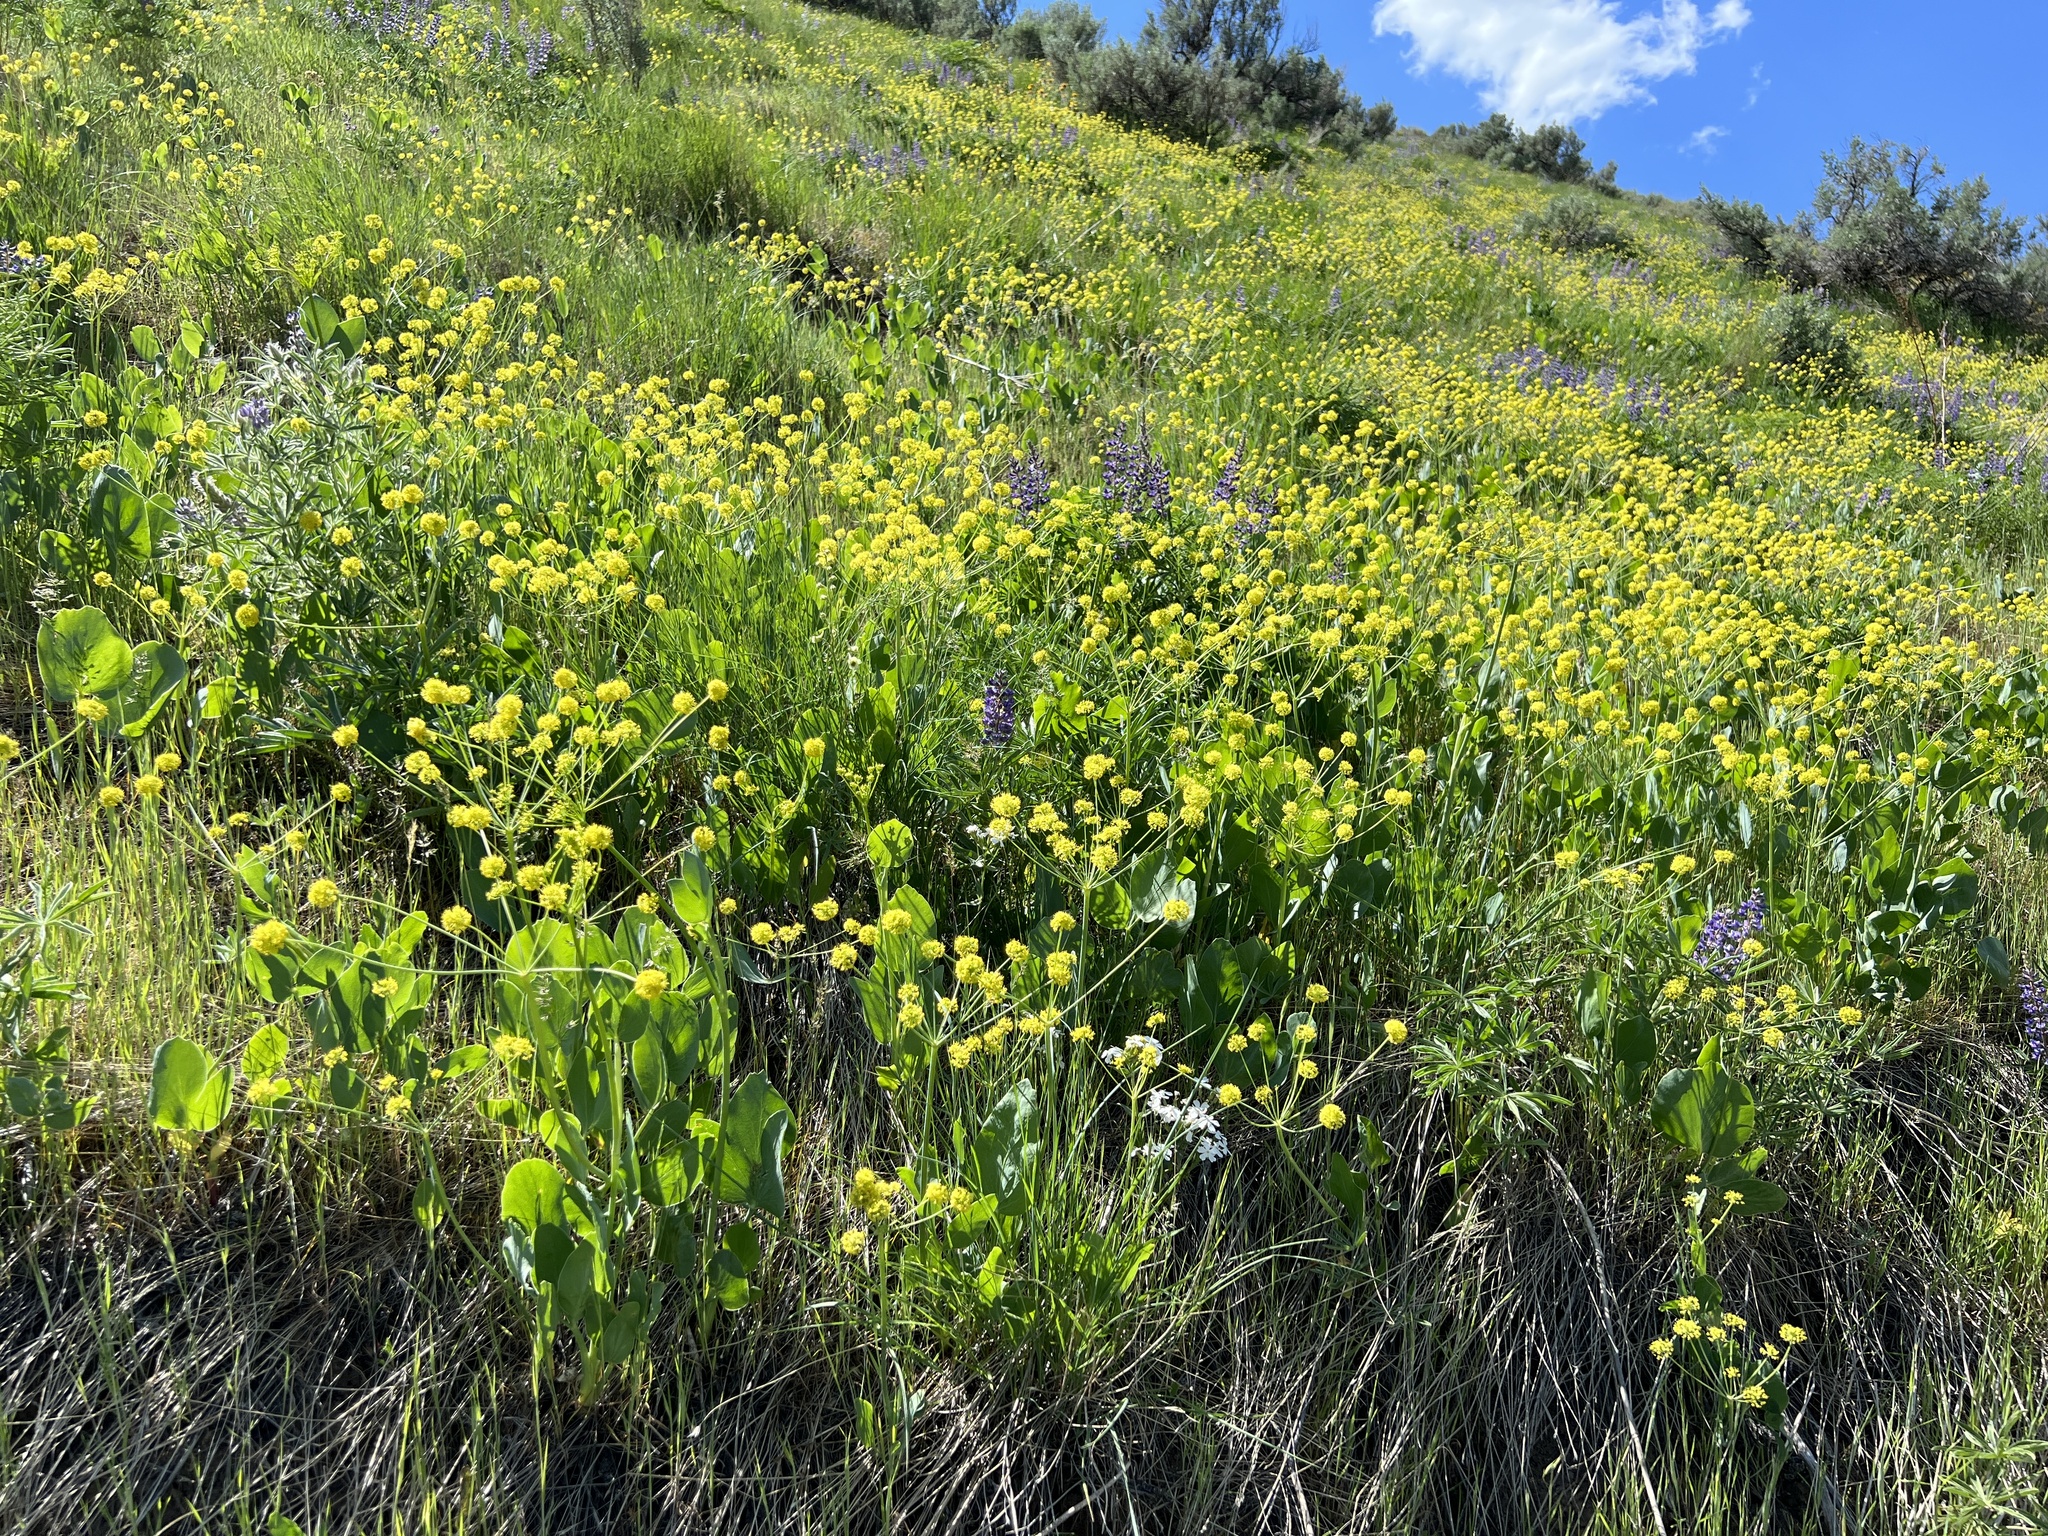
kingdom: Plantae
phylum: Tracheophyta
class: Magnoliopsida
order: Apiales
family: Apiaceae
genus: Lomatium
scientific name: Lomatium nudicaule
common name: Pestle lomatium
